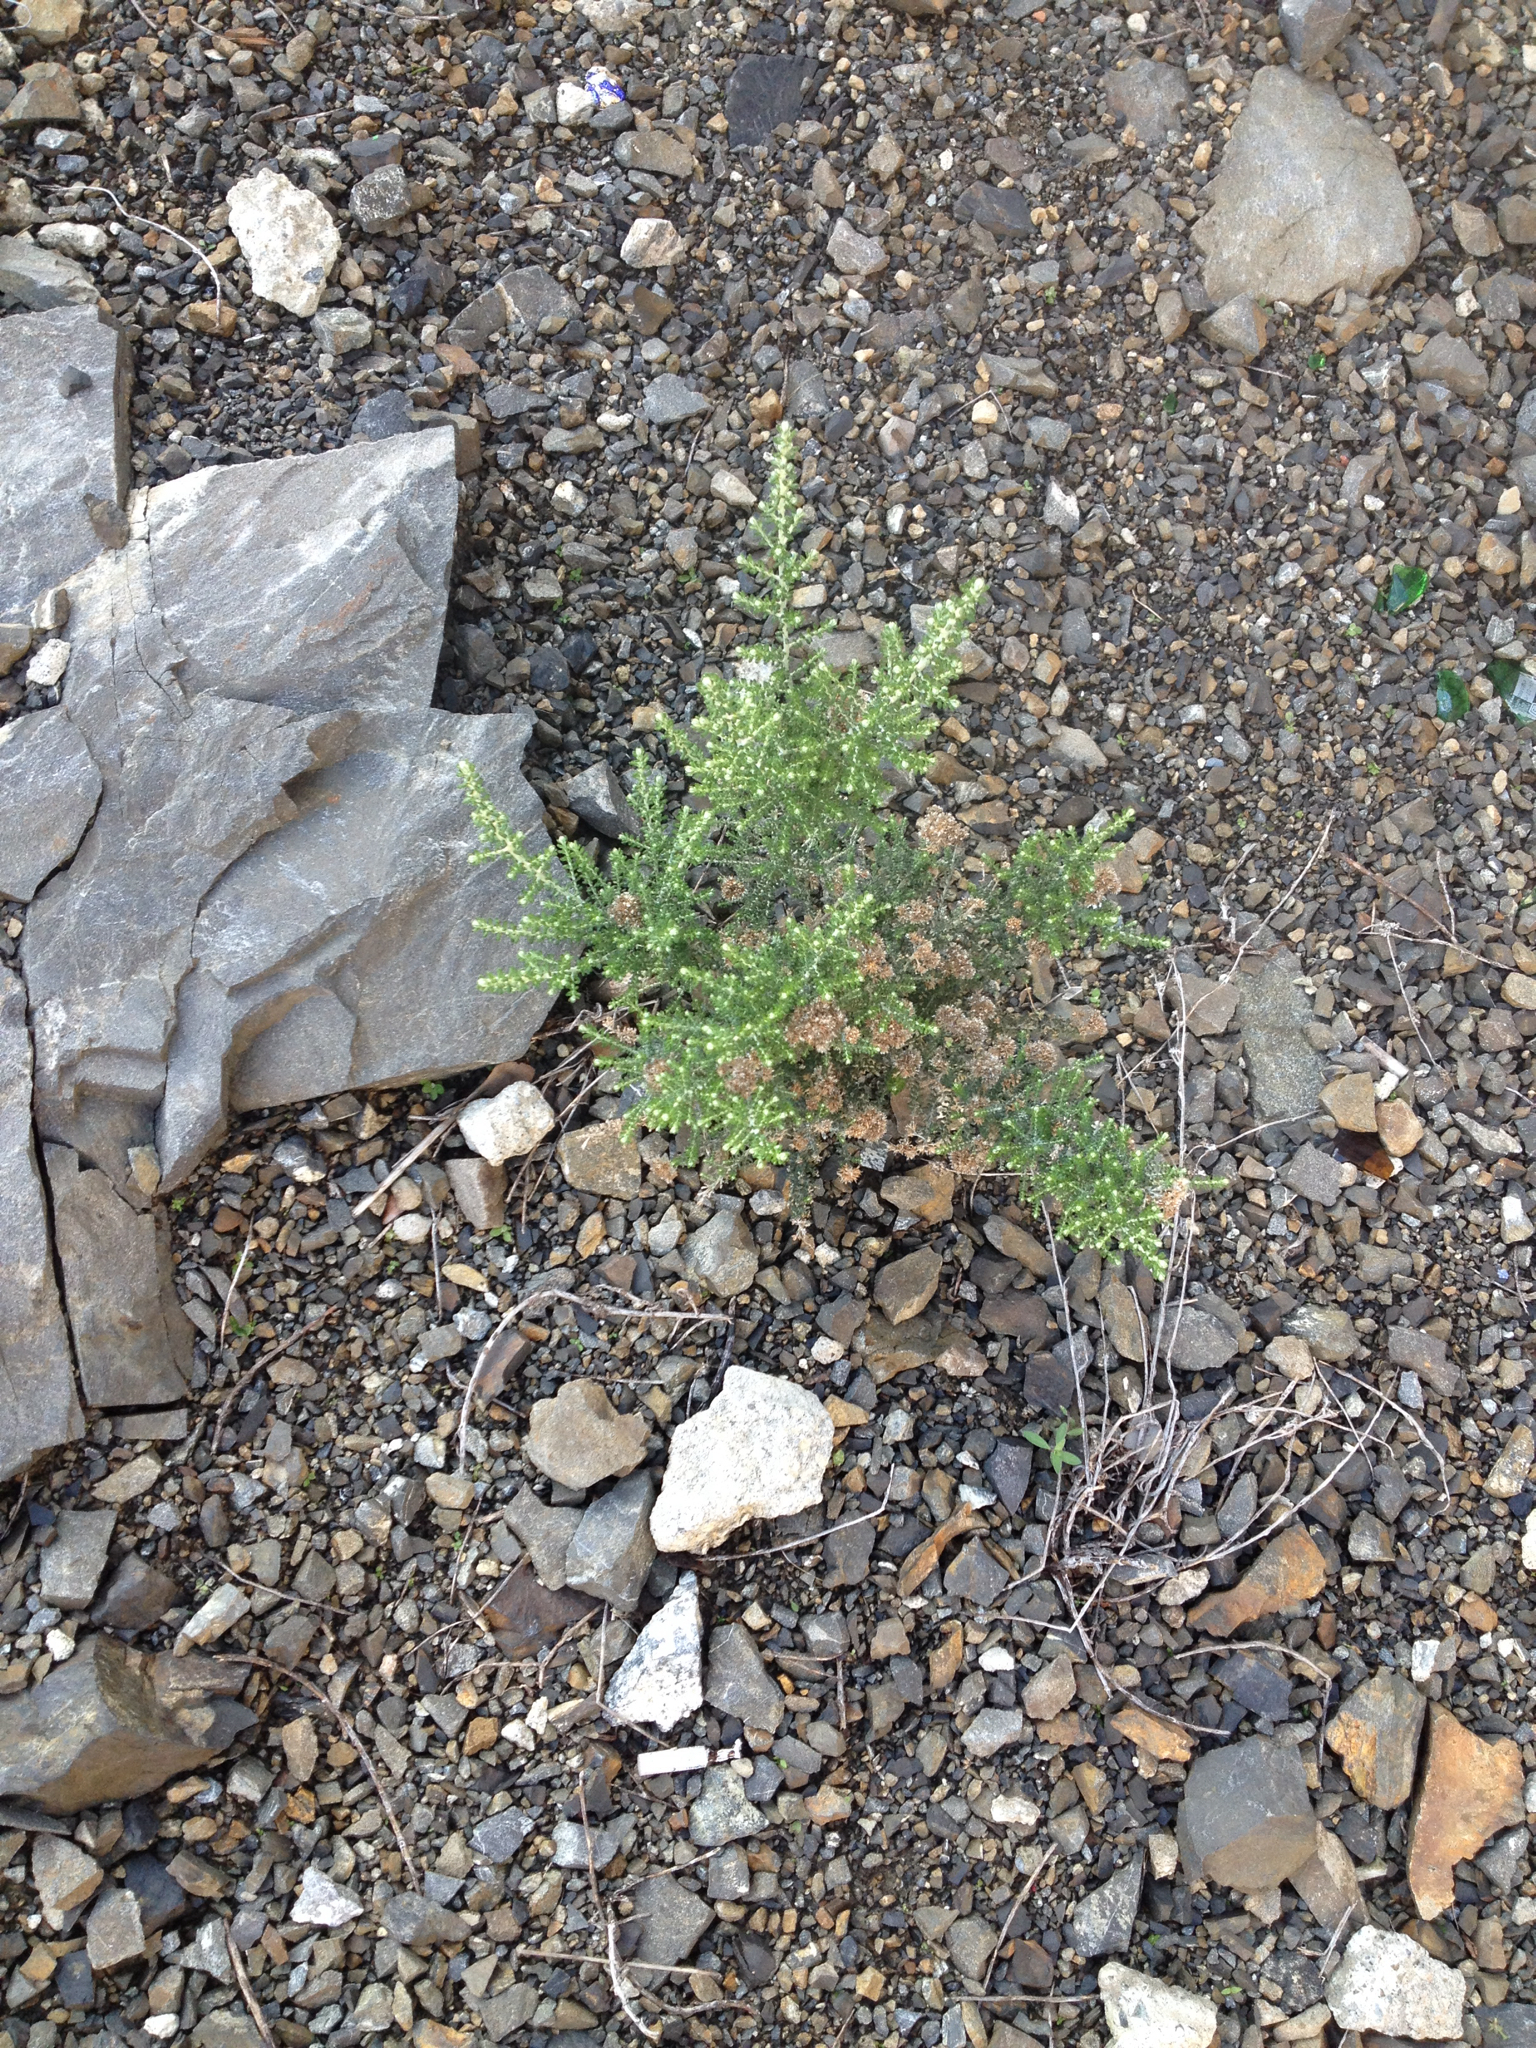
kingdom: Plantae
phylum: Tracheophyta
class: Magnoliopsida
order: Asterales
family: Asteraceae
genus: Ozothamnus
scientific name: Ozothamnus leptophyllus
